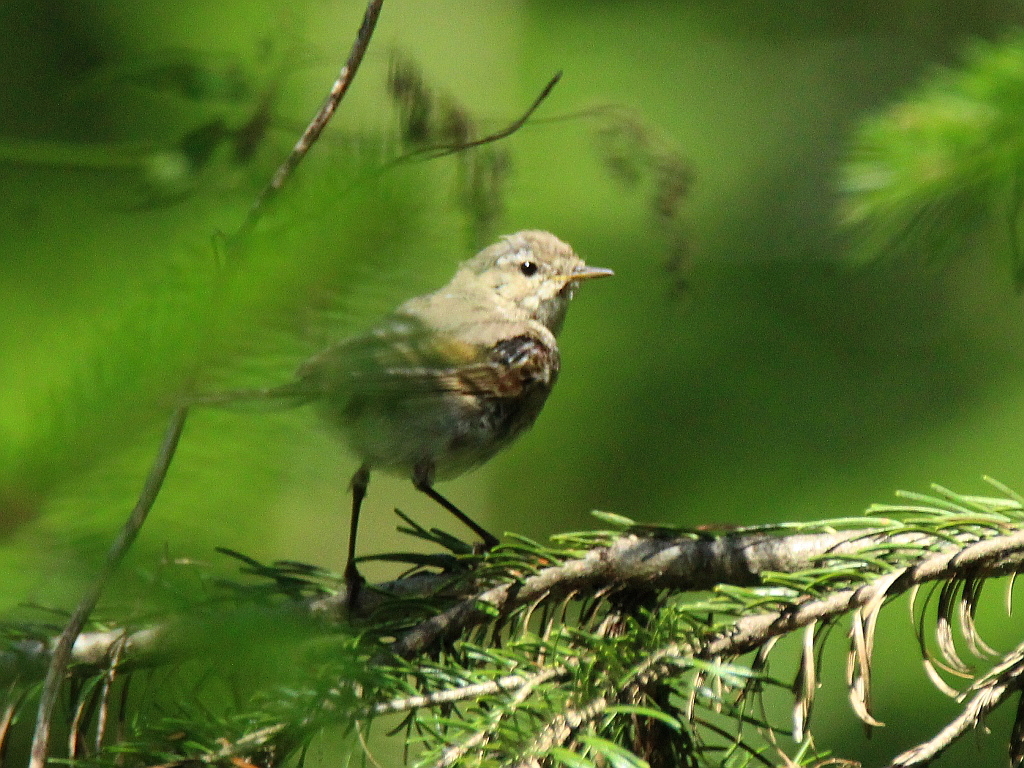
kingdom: Animalia
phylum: Chordata
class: Aves
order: Passeriformes
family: Phylloscopidae
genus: Phylloscopus
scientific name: Phylloscopus collybita
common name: Common chiffchaff
